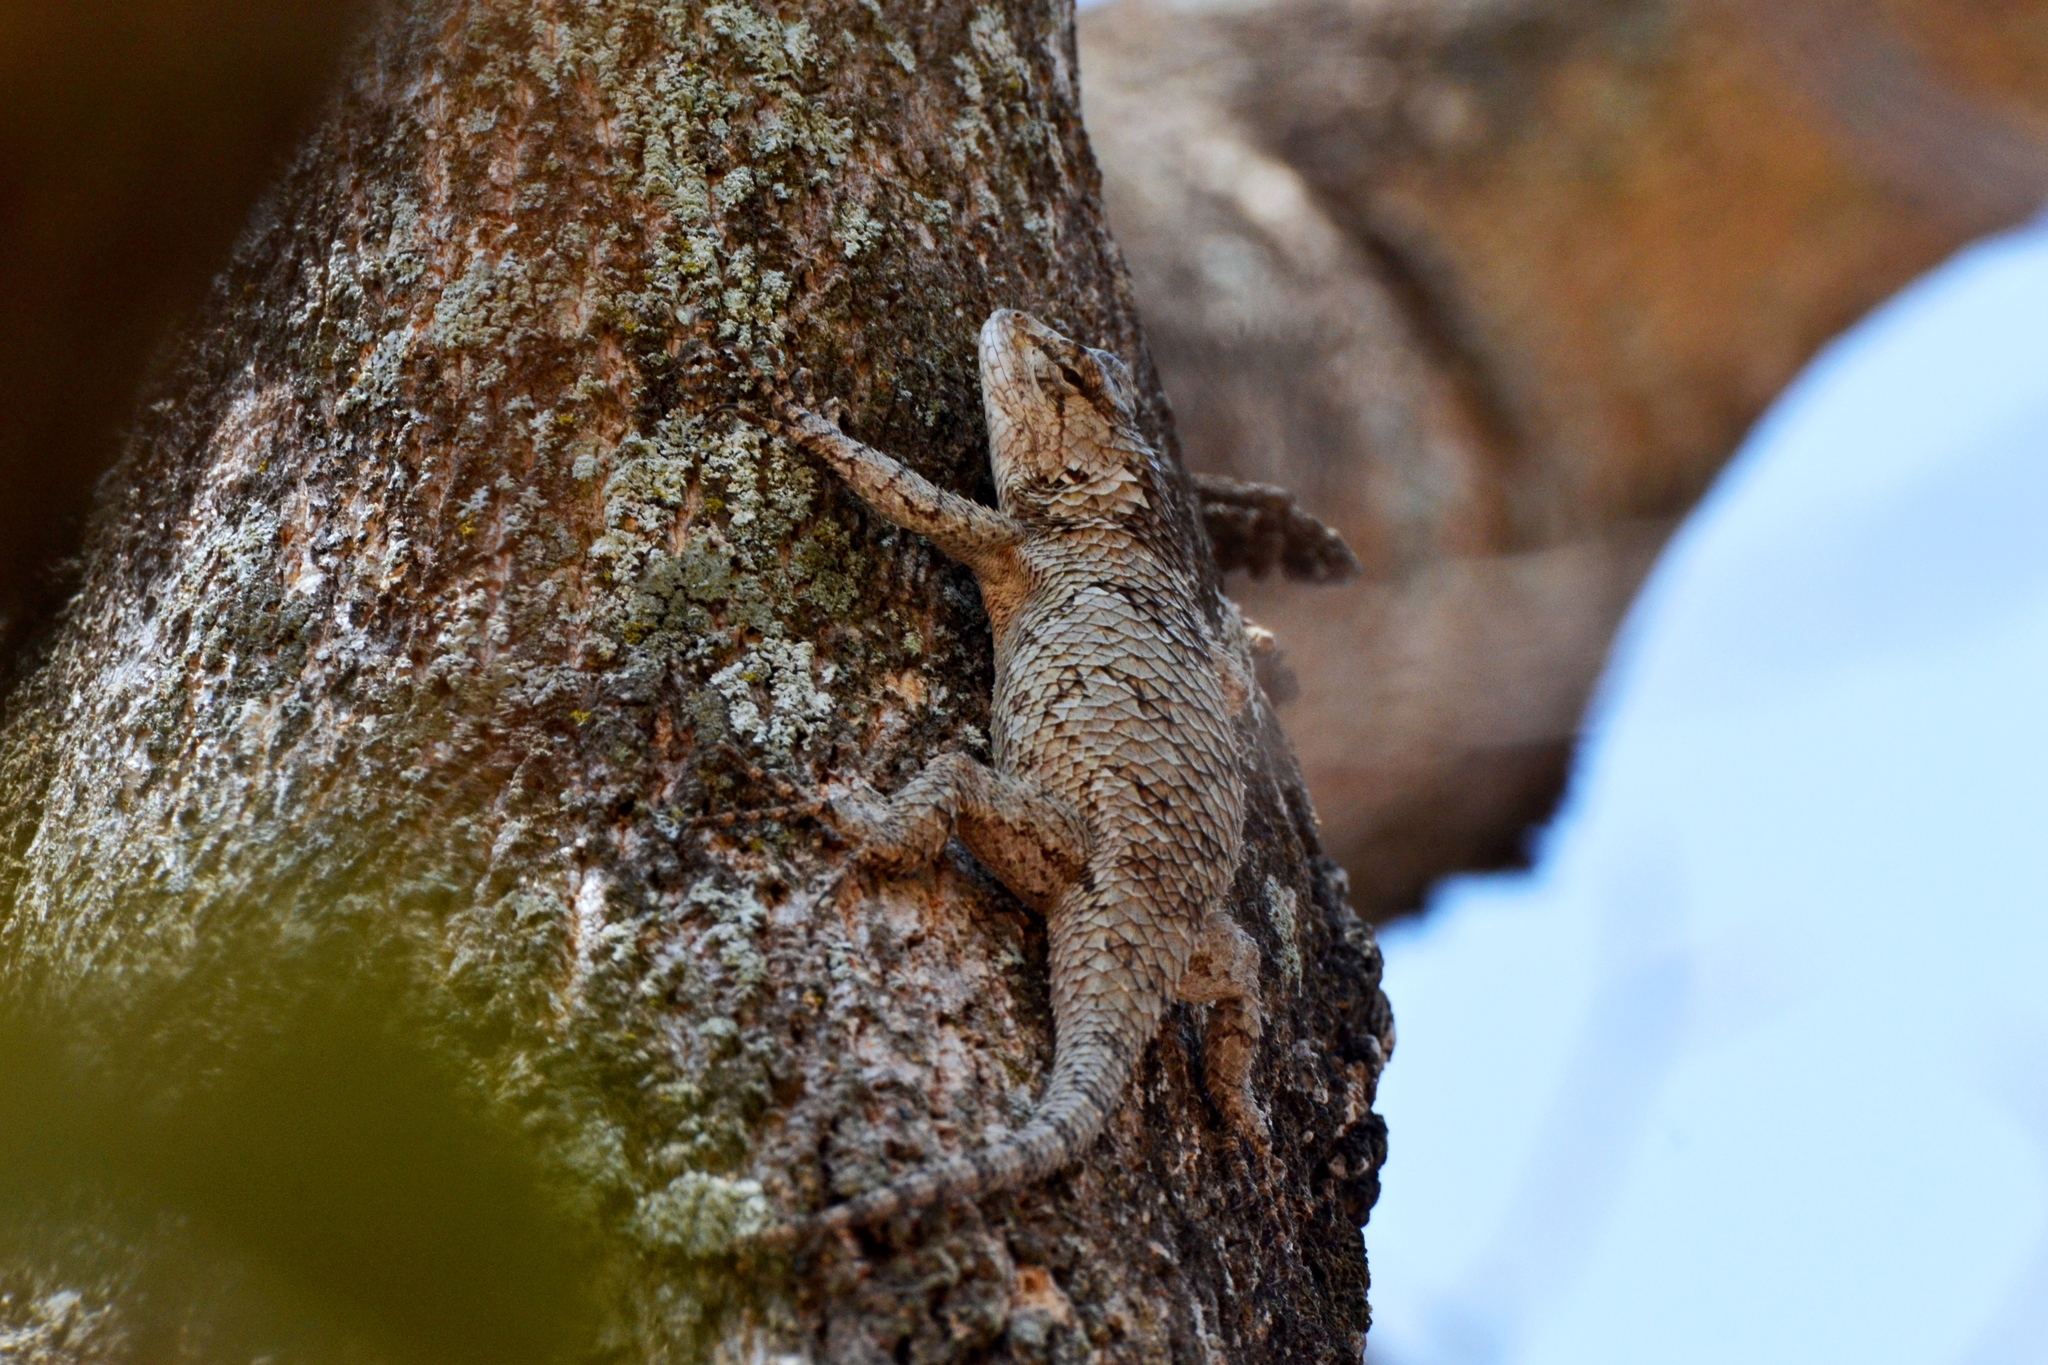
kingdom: Animalia
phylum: Chordata
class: Squamata
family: Phrynosomatidae
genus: Sceloporus
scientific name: Sceloporus melanorhinus
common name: Black-nosed lizard
